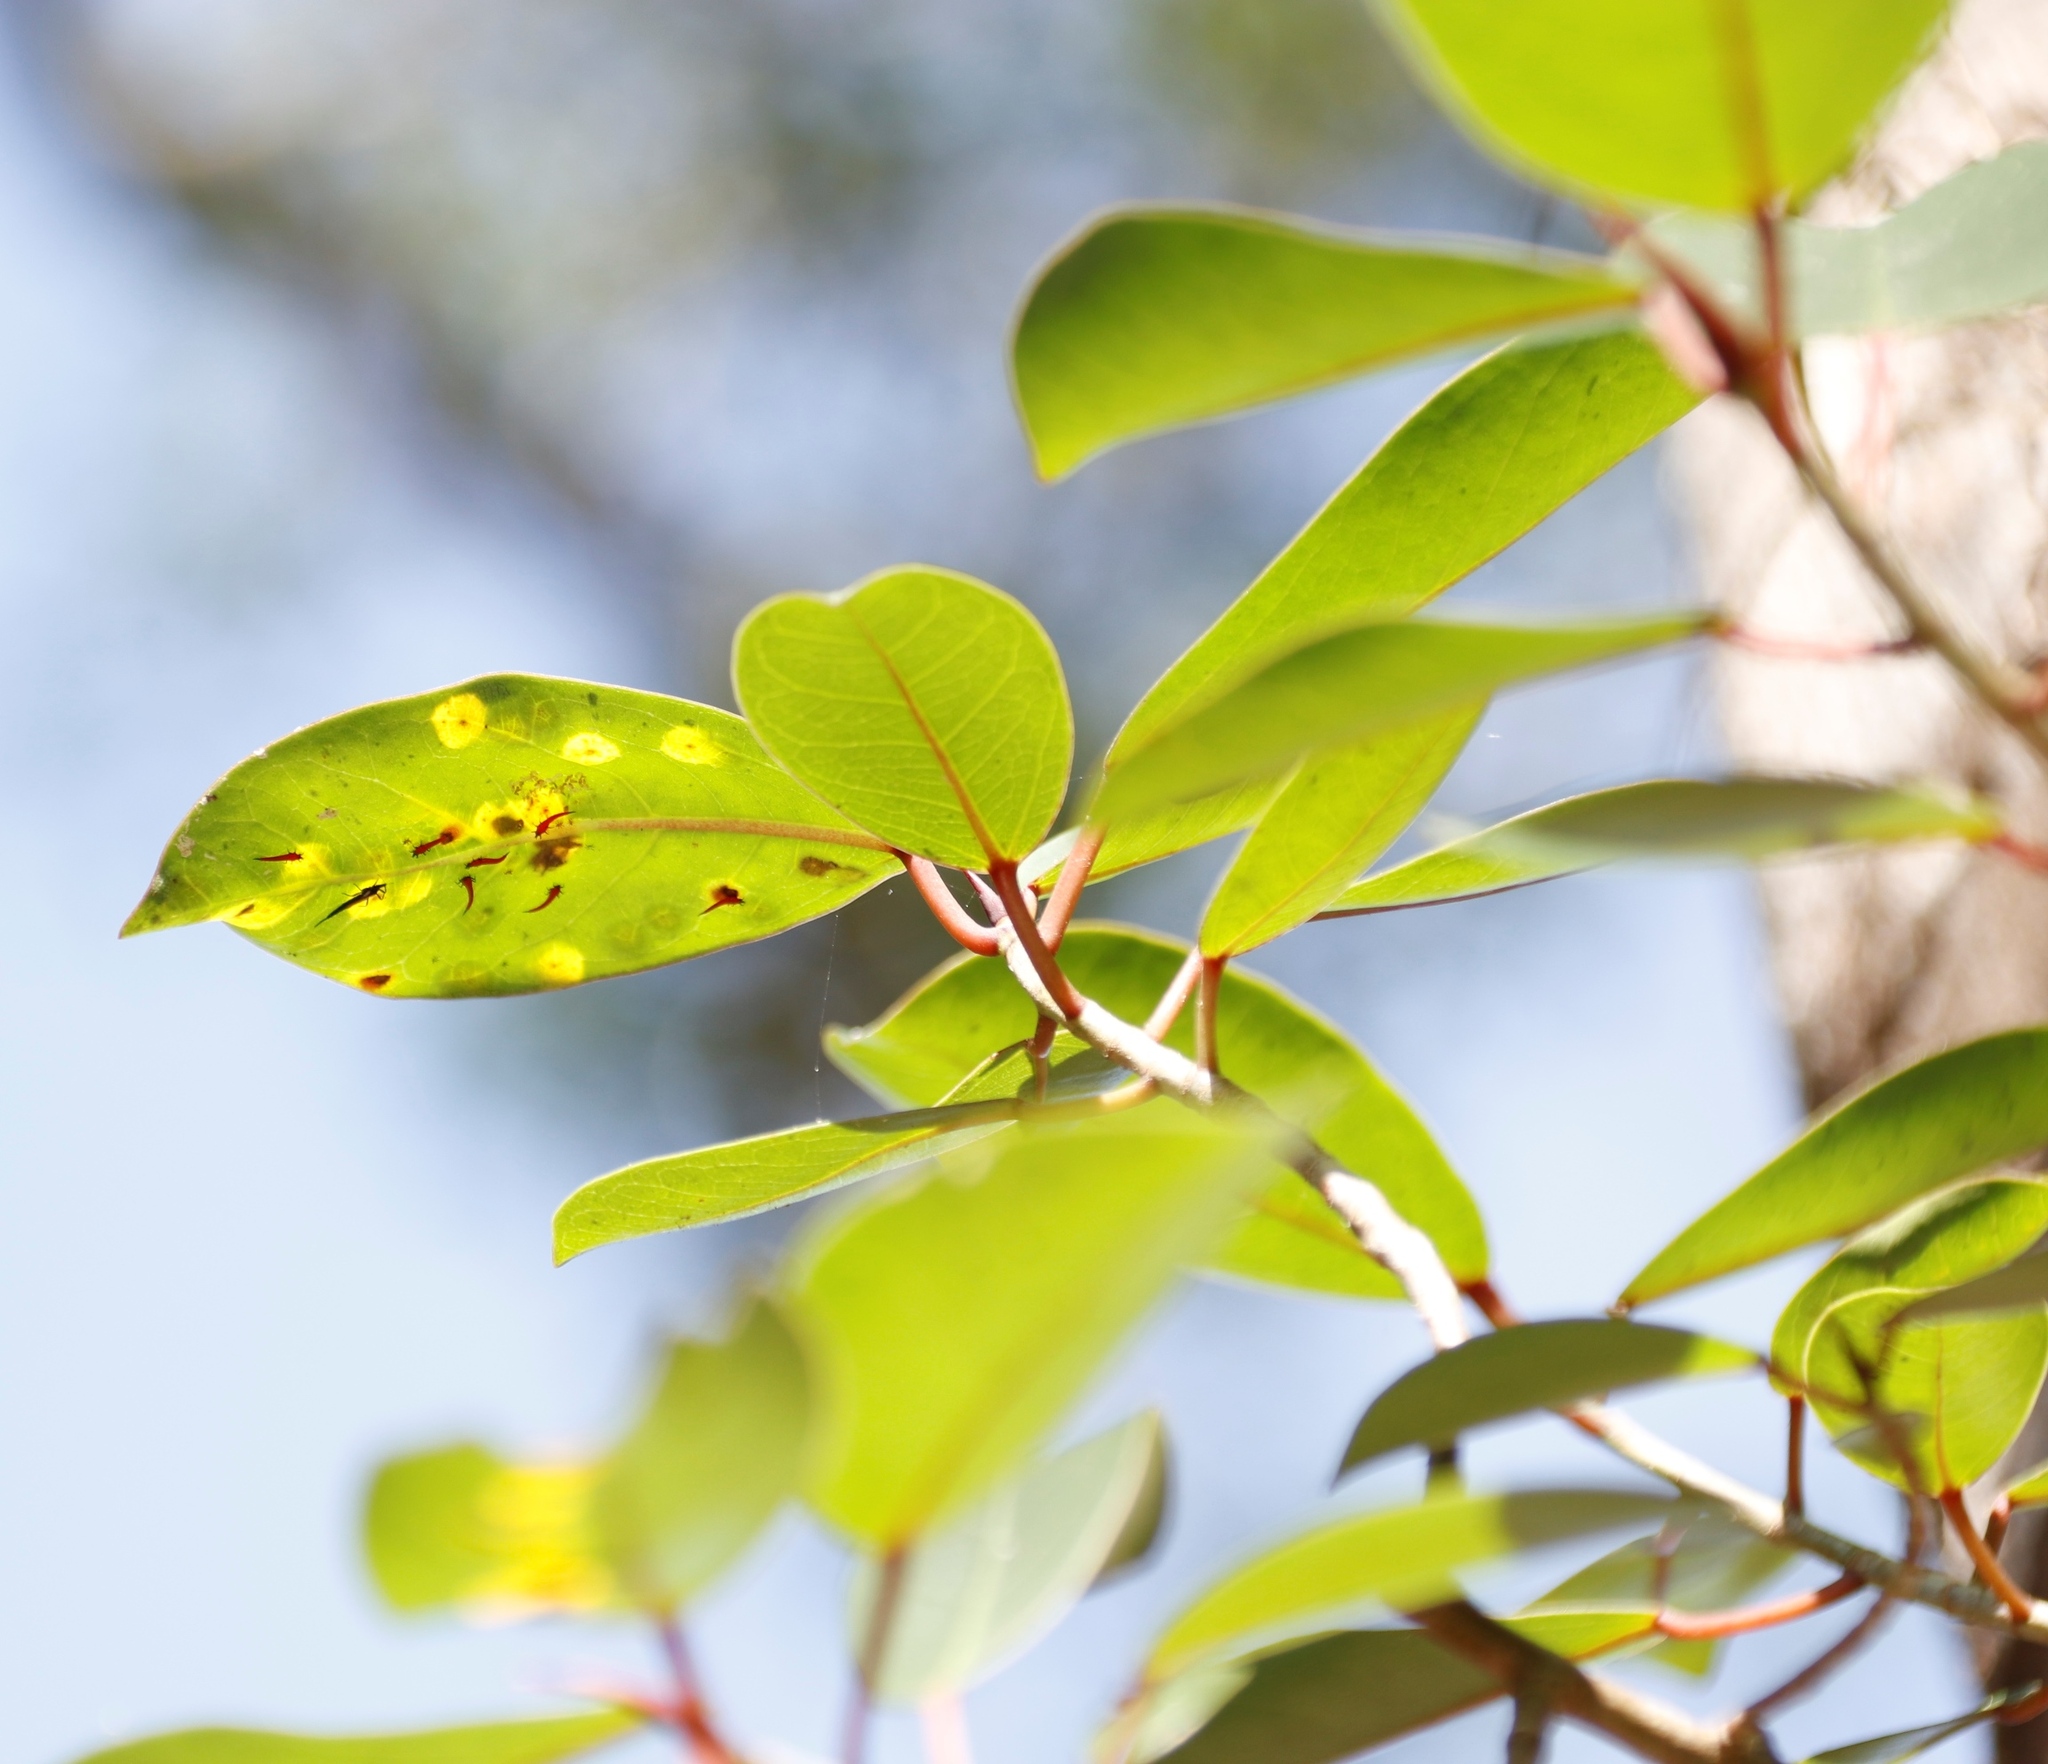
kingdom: Plantae
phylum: Tracheophyta
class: Magnoliopsida
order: Rosales
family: Moraceae
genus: Ficus
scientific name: Ficus thonningii
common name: Fig
